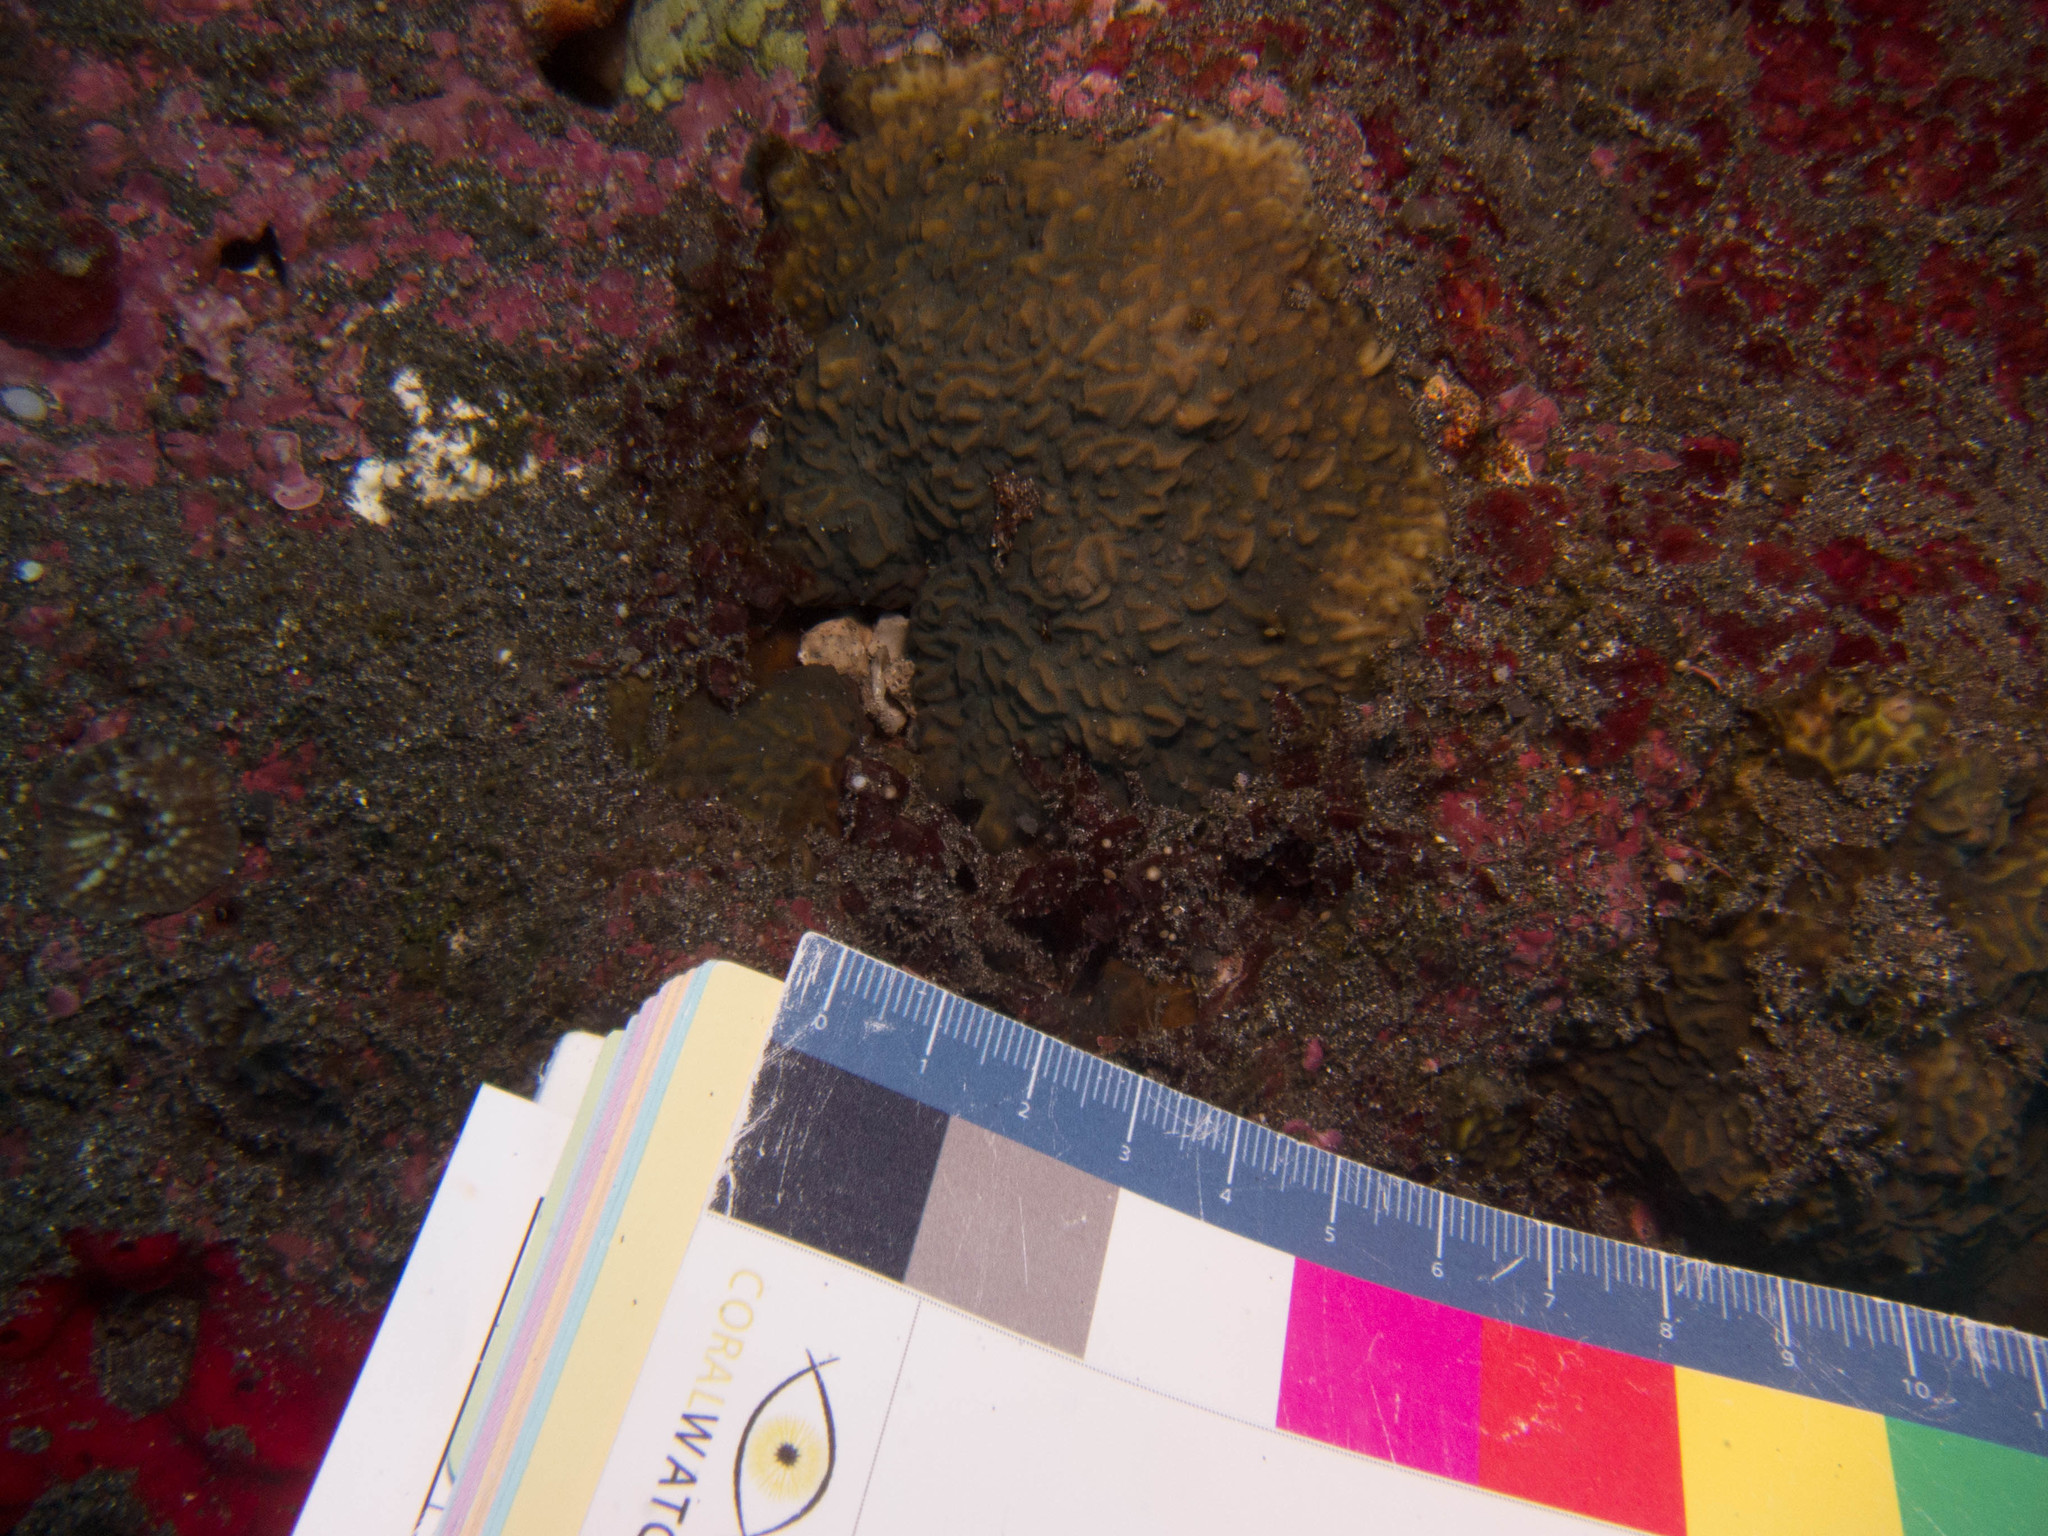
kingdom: Animalia
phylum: Cnidaria
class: Anthozoa
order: Scleractinia
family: Agariciidae
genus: Pavona
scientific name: Pavona varians
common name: Leaf coral
